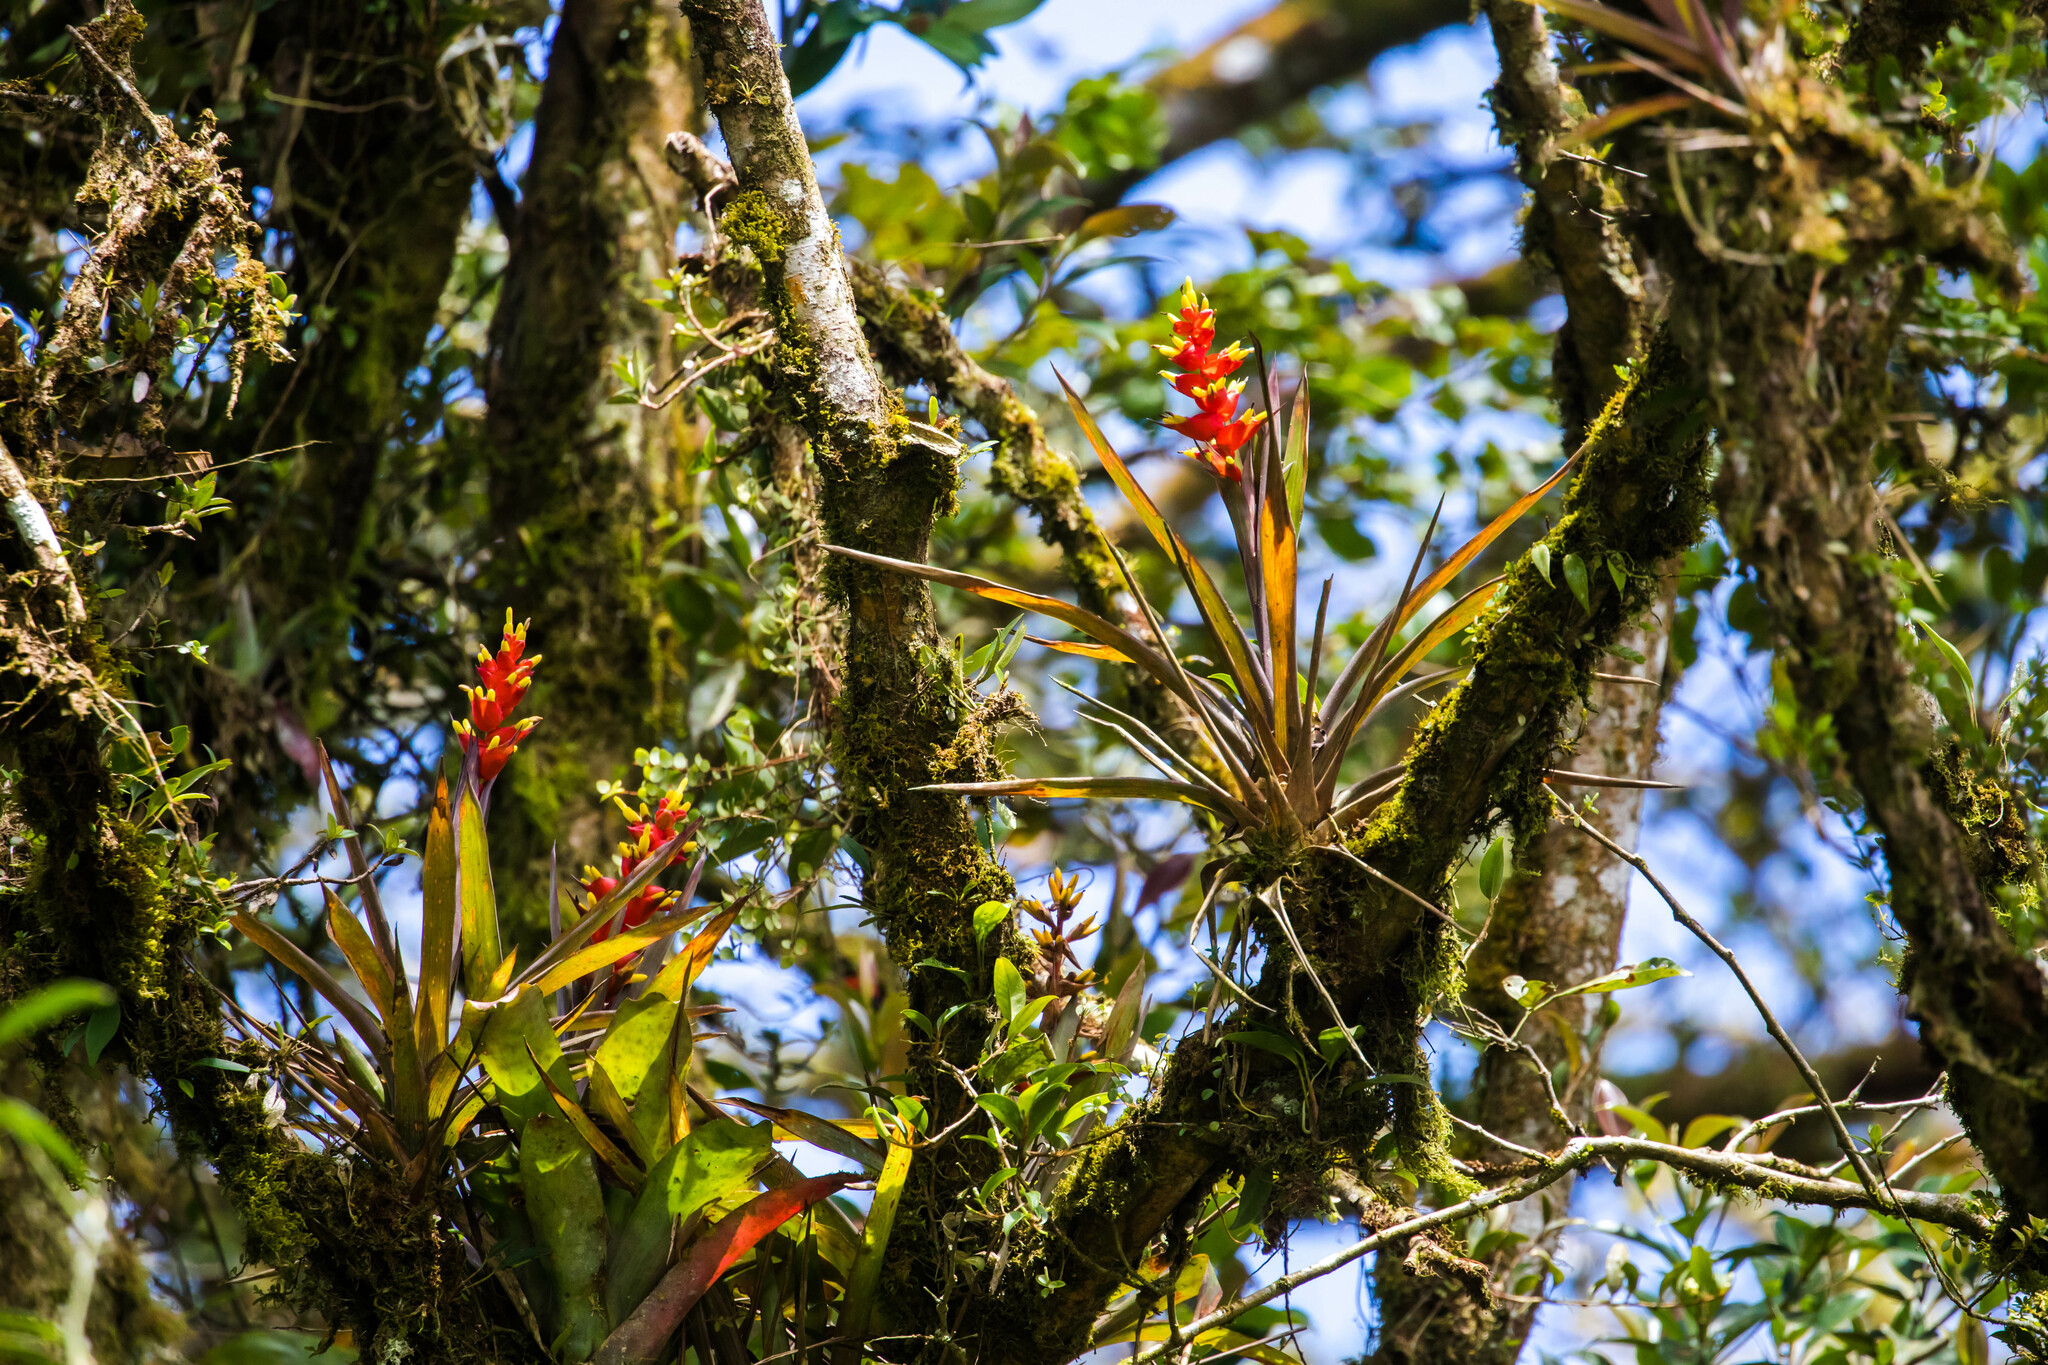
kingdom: Plantae
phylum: Tracheophyta
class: Liliopsida
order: Poales
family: Bromeliaceae
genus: Guzmania
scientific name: Guzmania donnellsmithii
